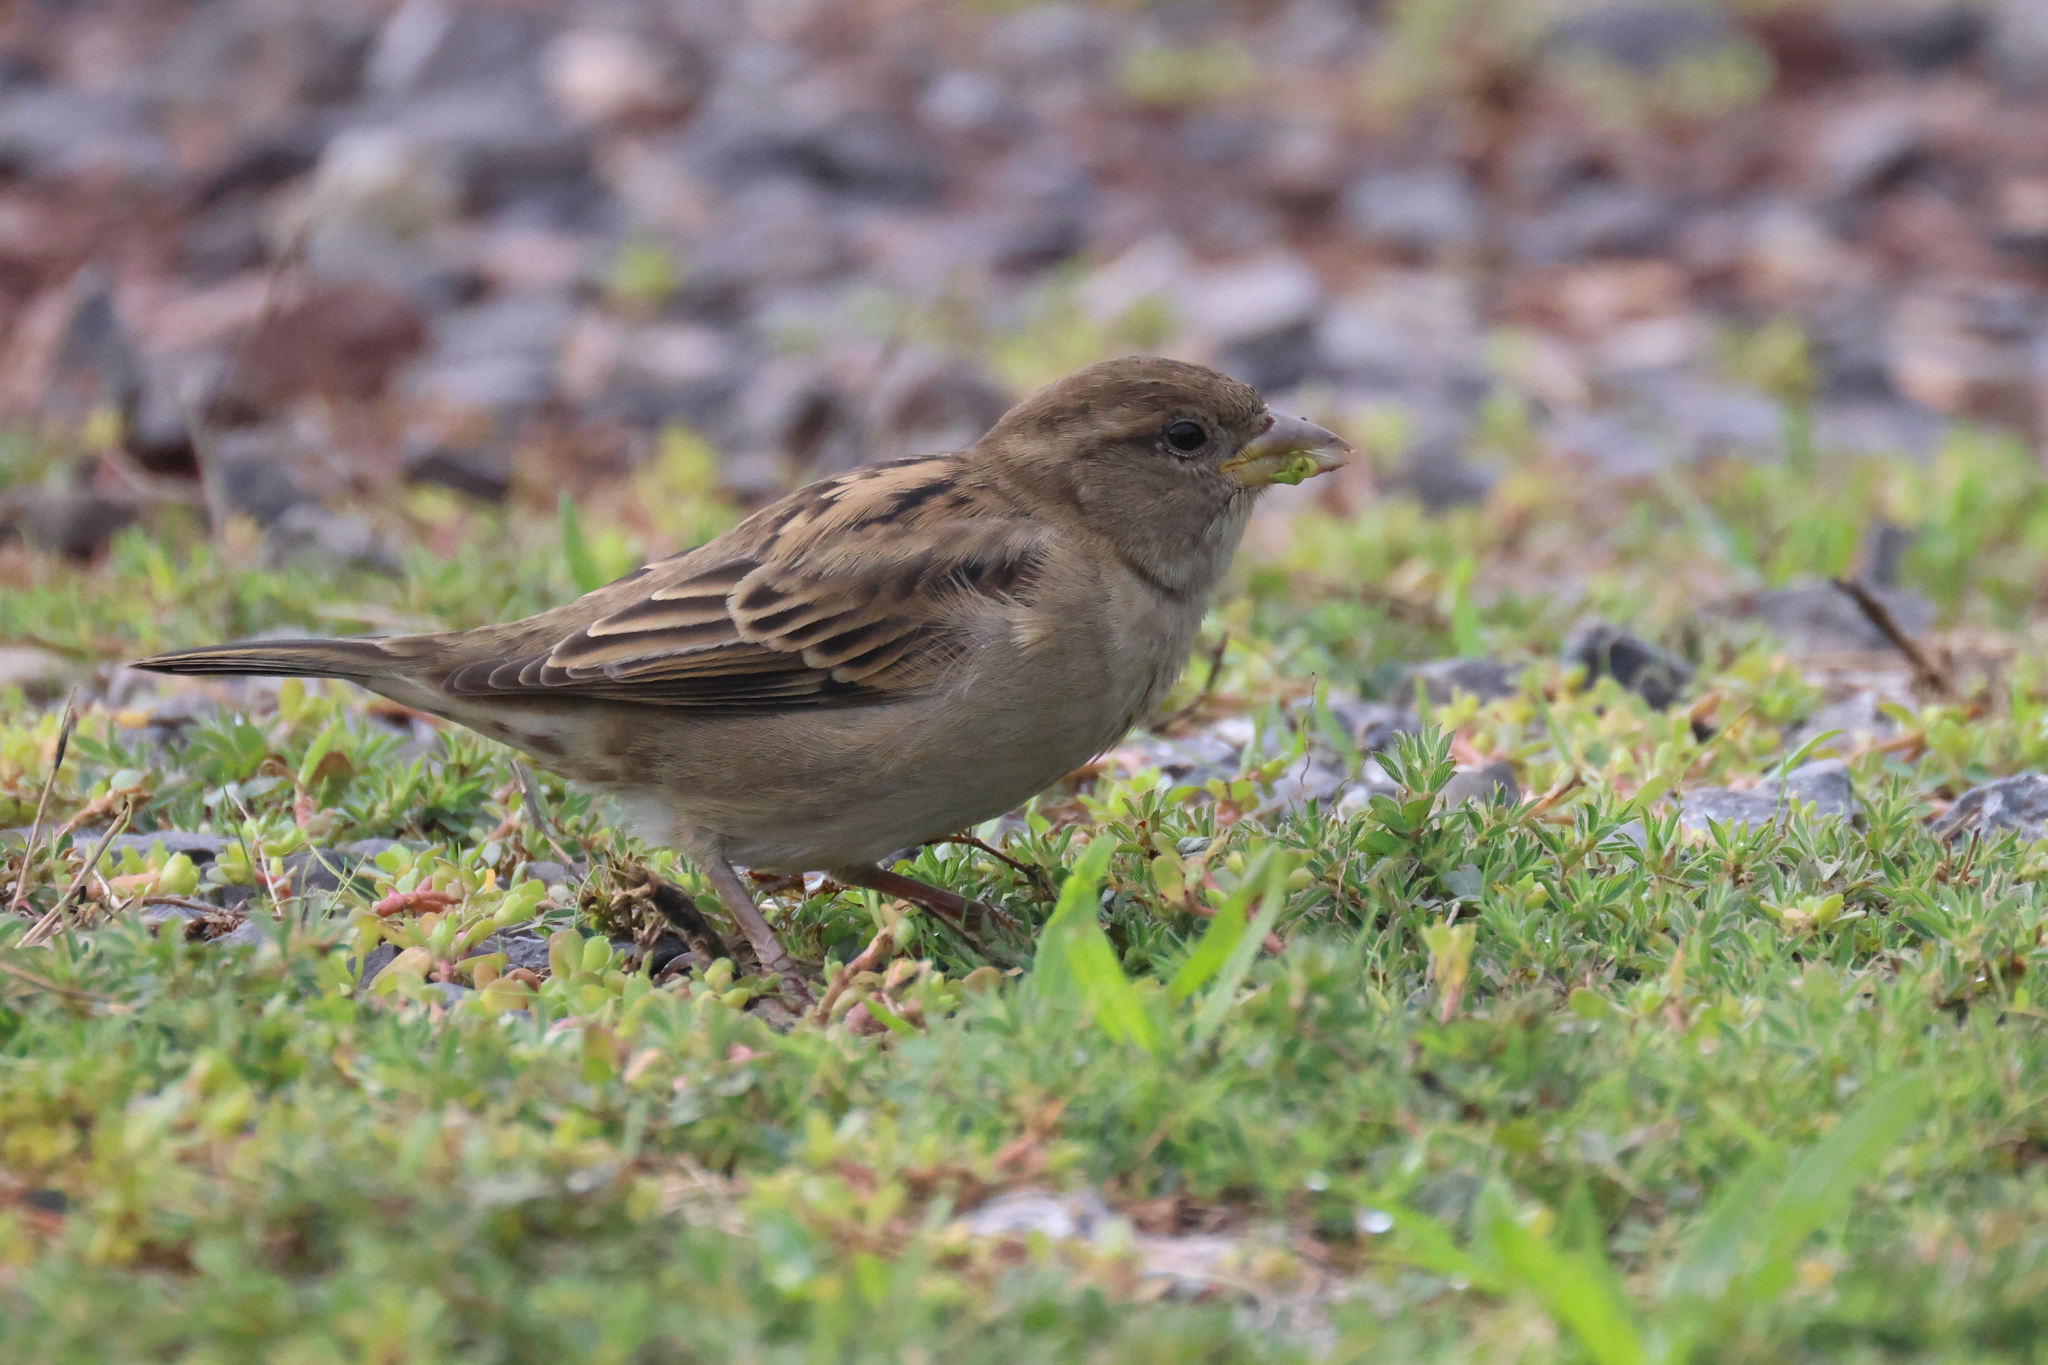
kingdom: Animalia
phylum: Chordata
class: Aves
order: Passeriformes
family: Passeridae
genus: Passer
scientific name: Passer domesticus
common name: House sparrow
